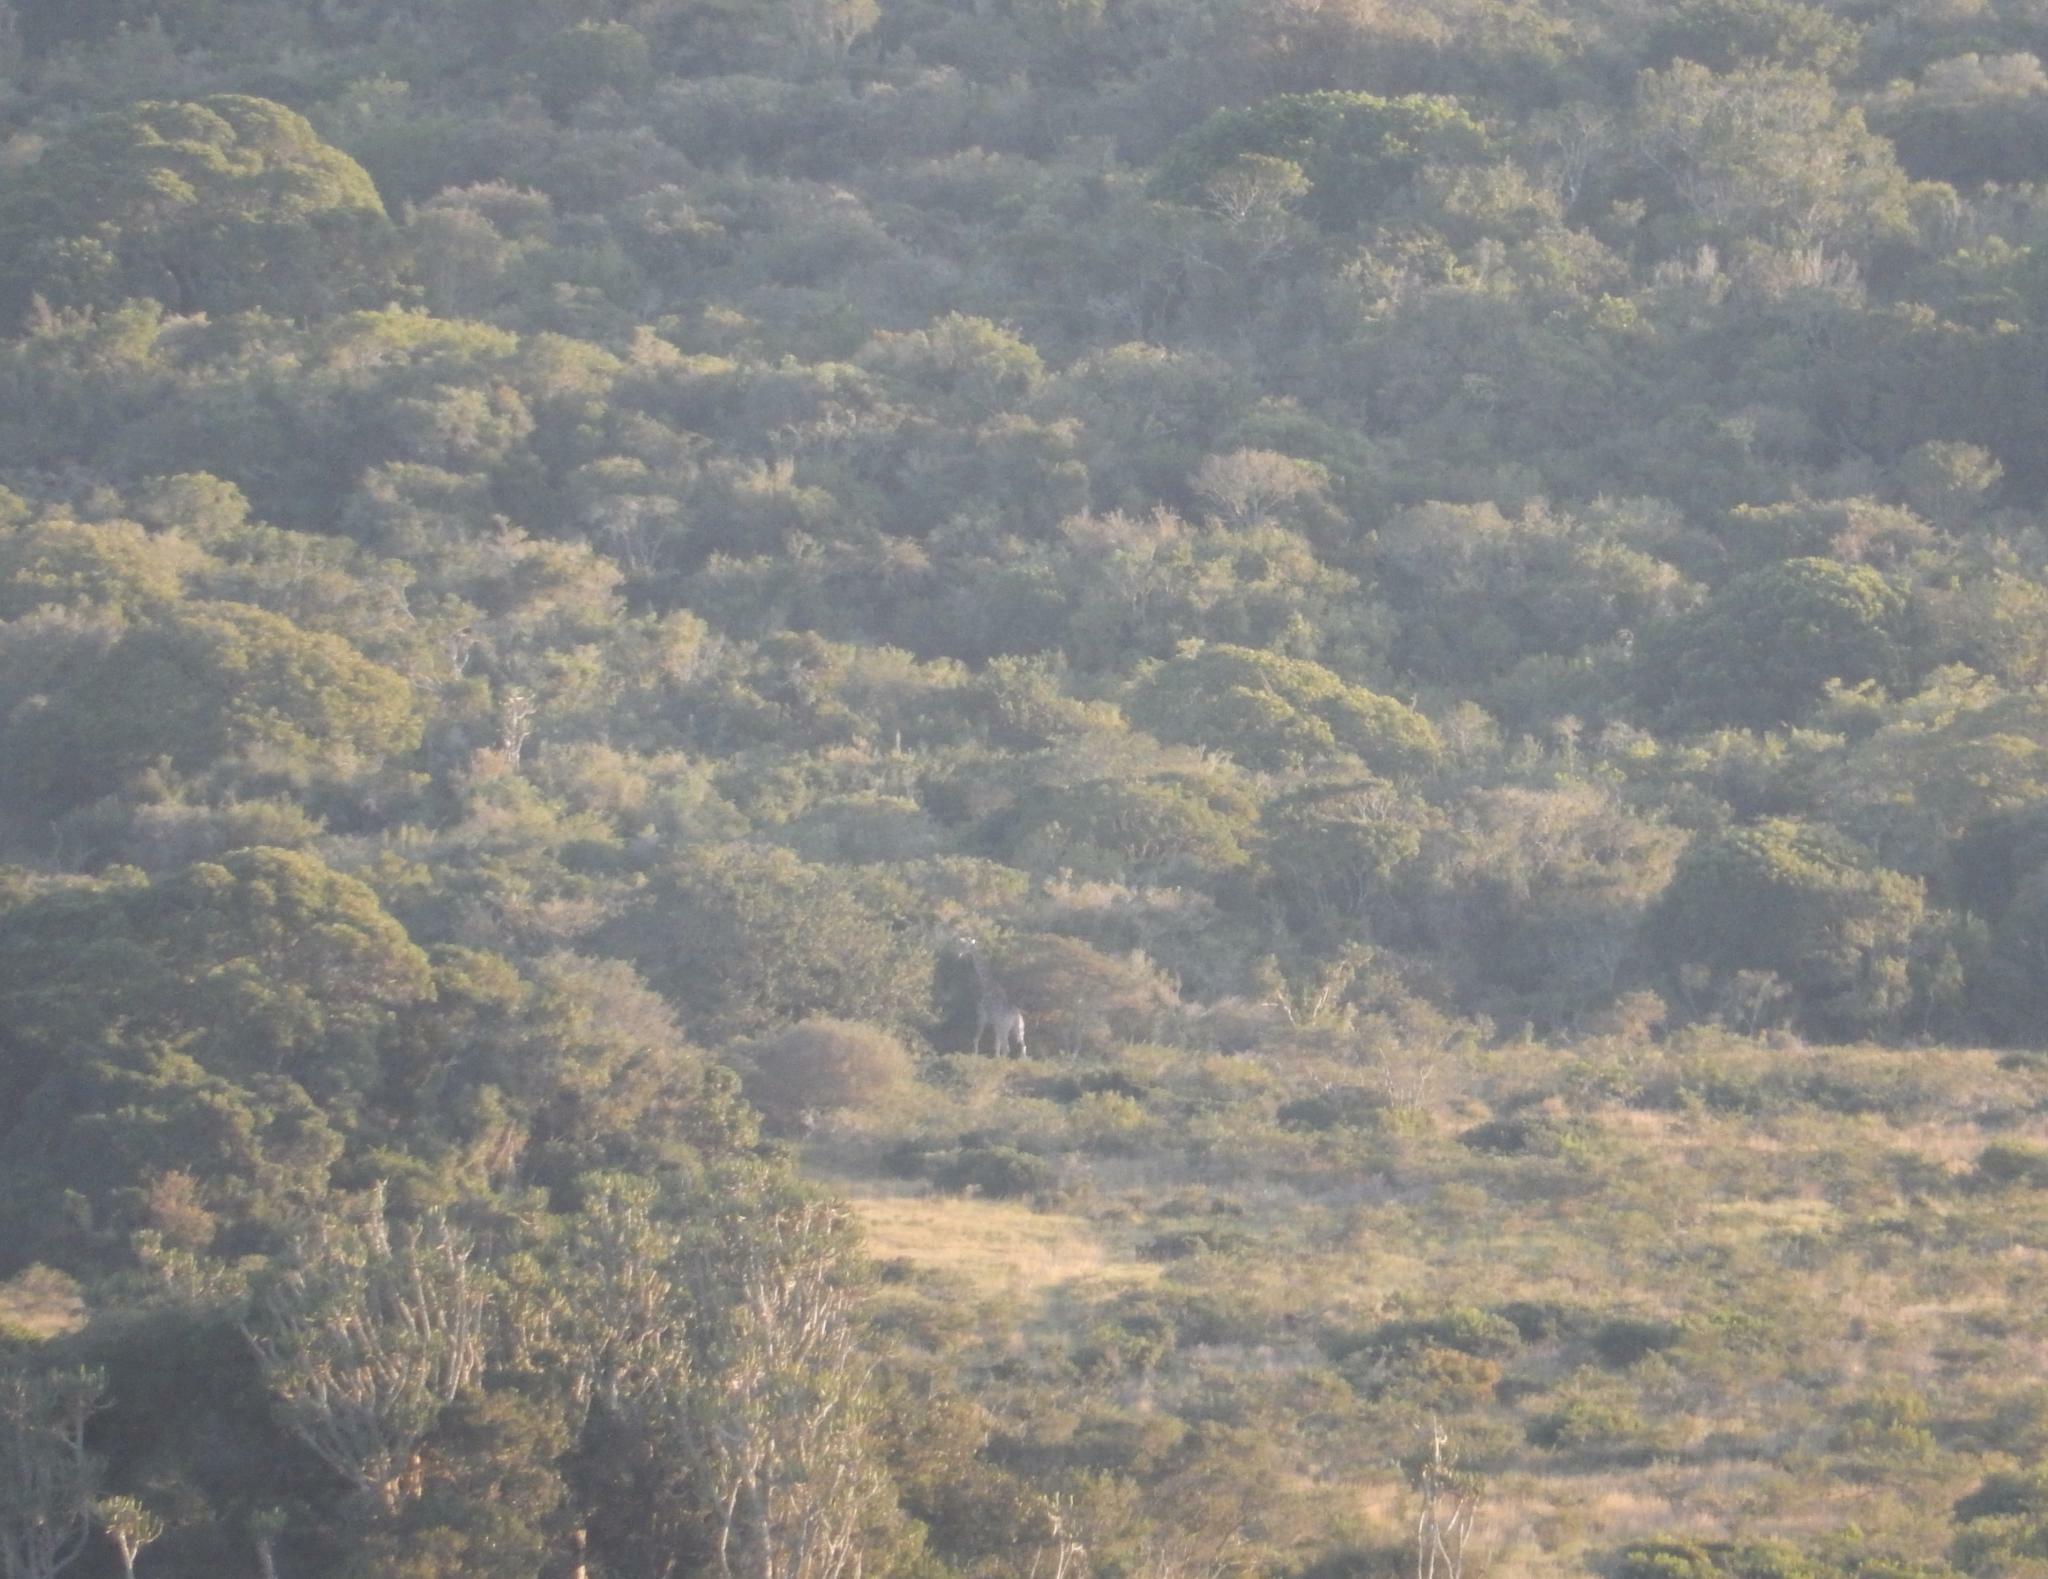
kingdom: Animalia
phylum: Chordata
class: Mammalia
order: Artiodactyla
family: Giraffidae
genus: Giraffa
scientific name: Giraffa giraffa
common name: Southern giraffe
